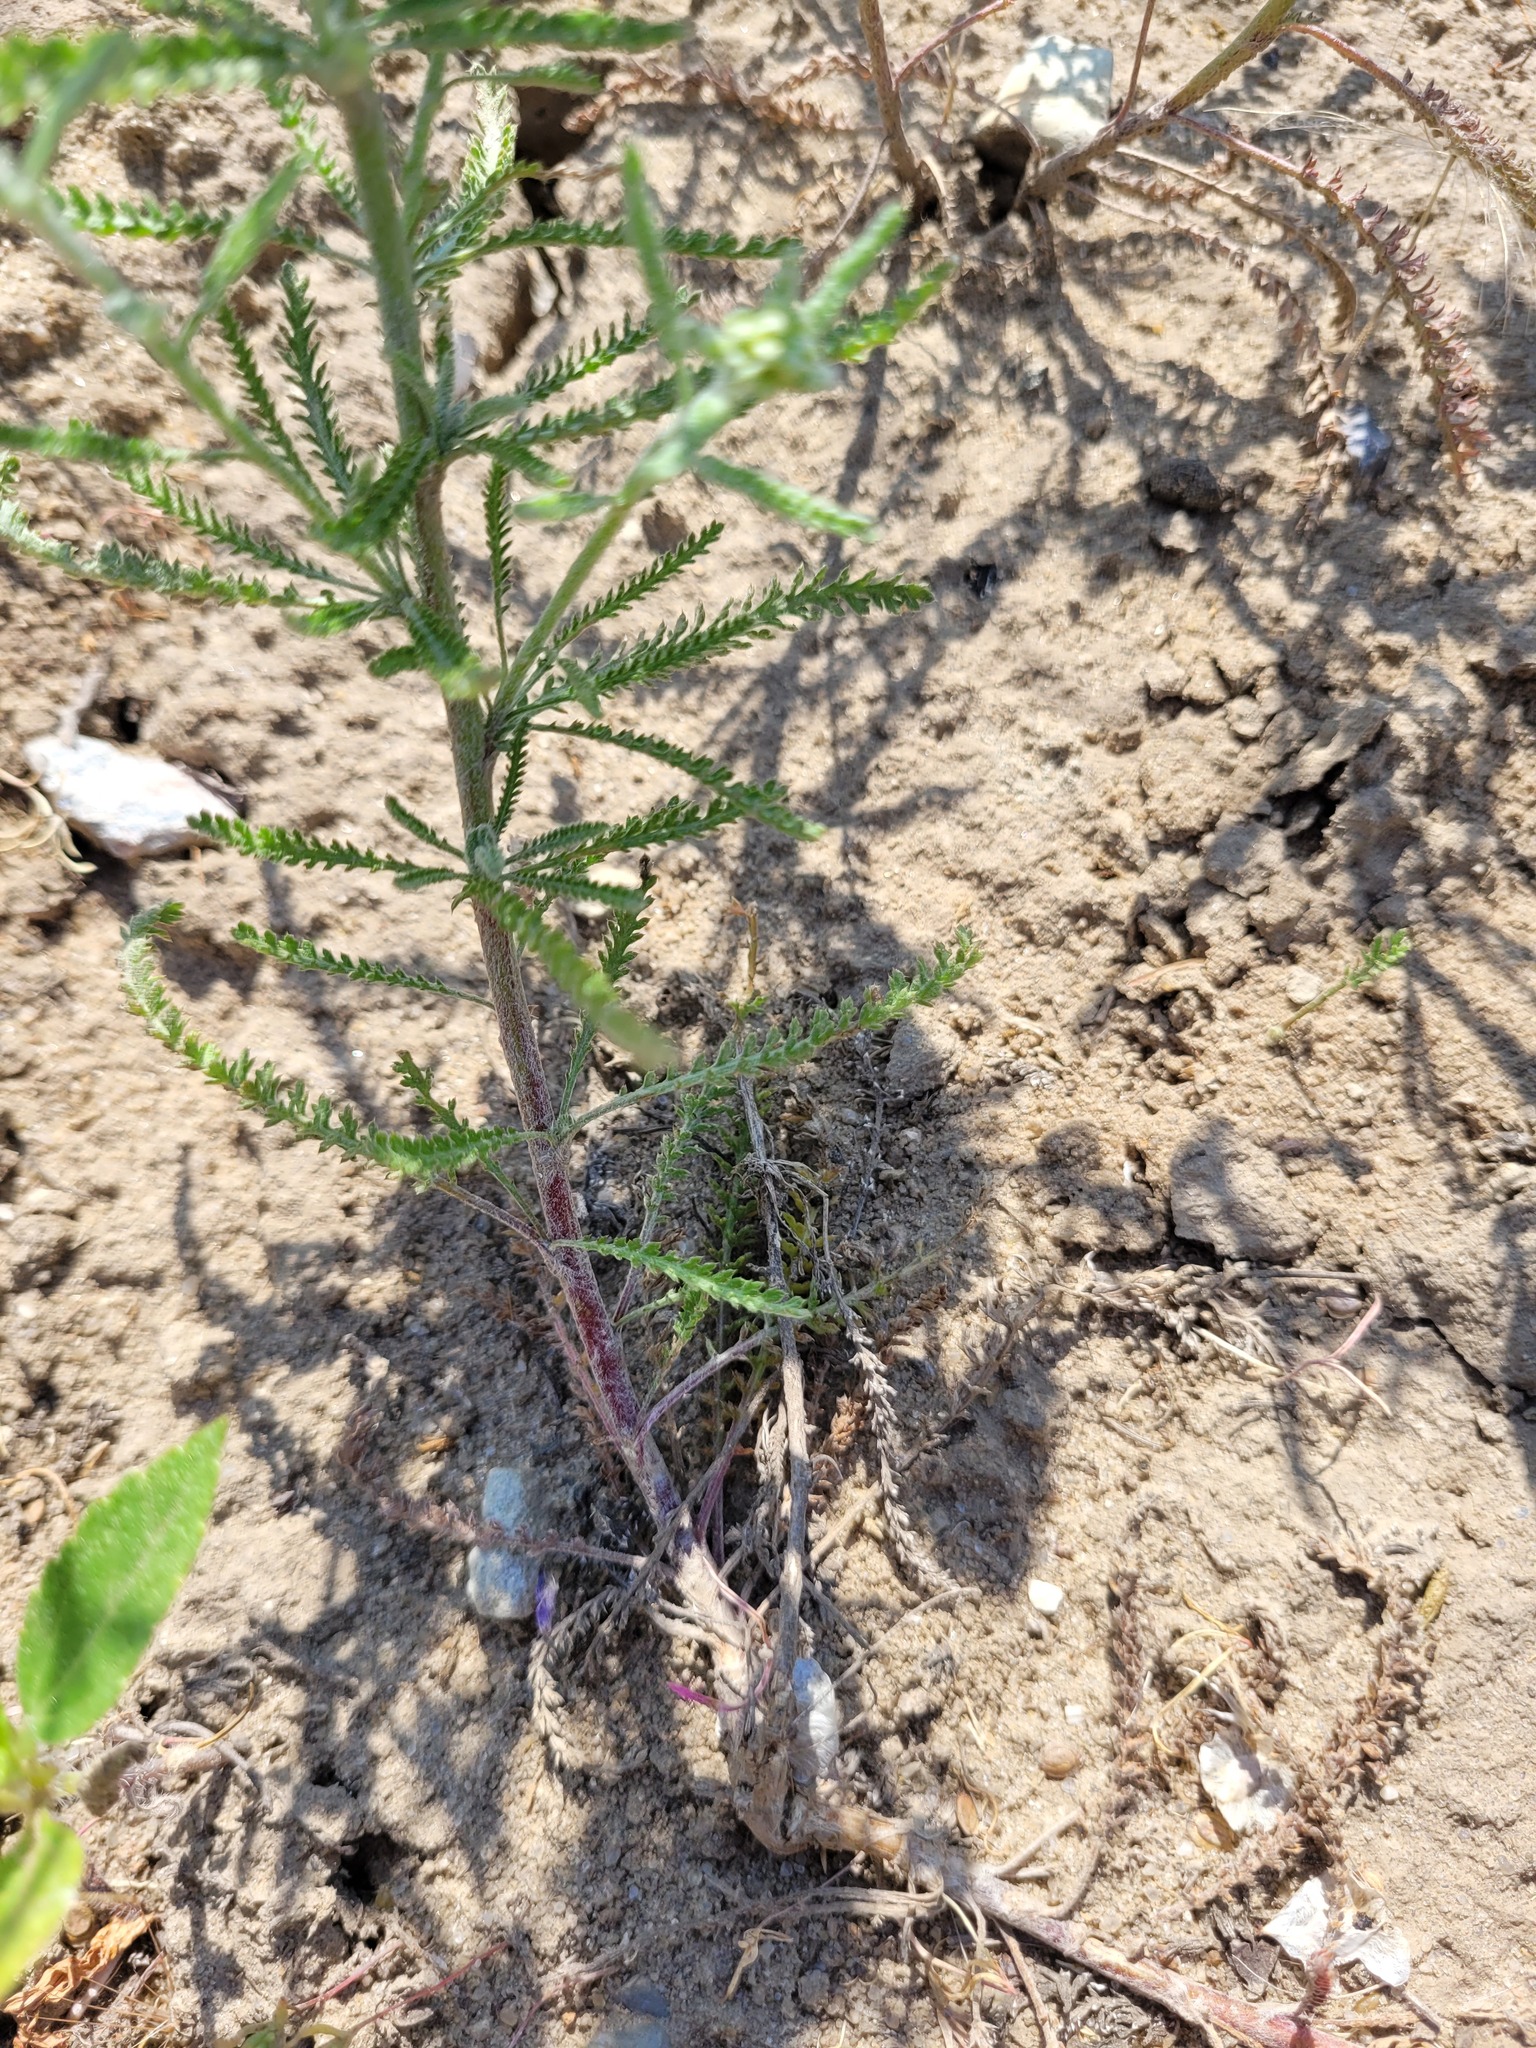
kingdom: Plantae
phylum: Tracheophyta
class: Magnoliopsida
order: Asterales
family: Asteraceae
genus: Achillea
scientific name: Achillea micrantha
